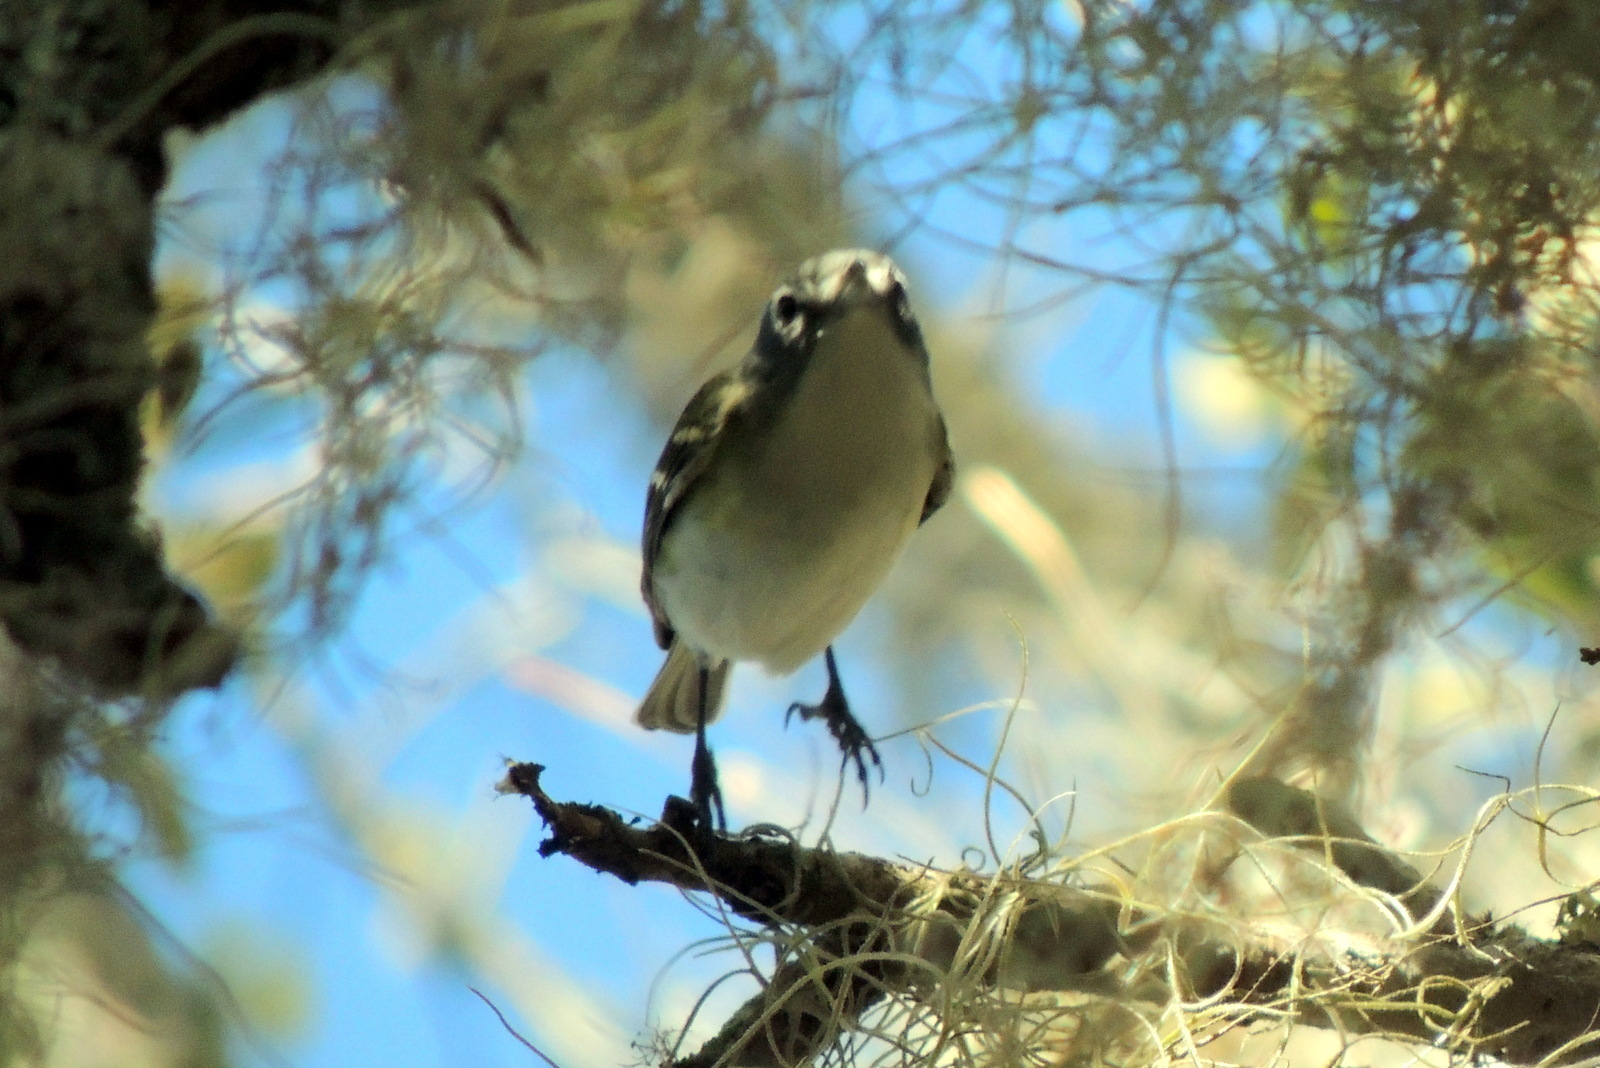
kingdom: Animalia
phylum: Chordata
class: Aves
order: Passeriformes
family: Vireonidae
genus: Vireo
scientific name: Vireo solitarius
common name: Blue-headed vireo
